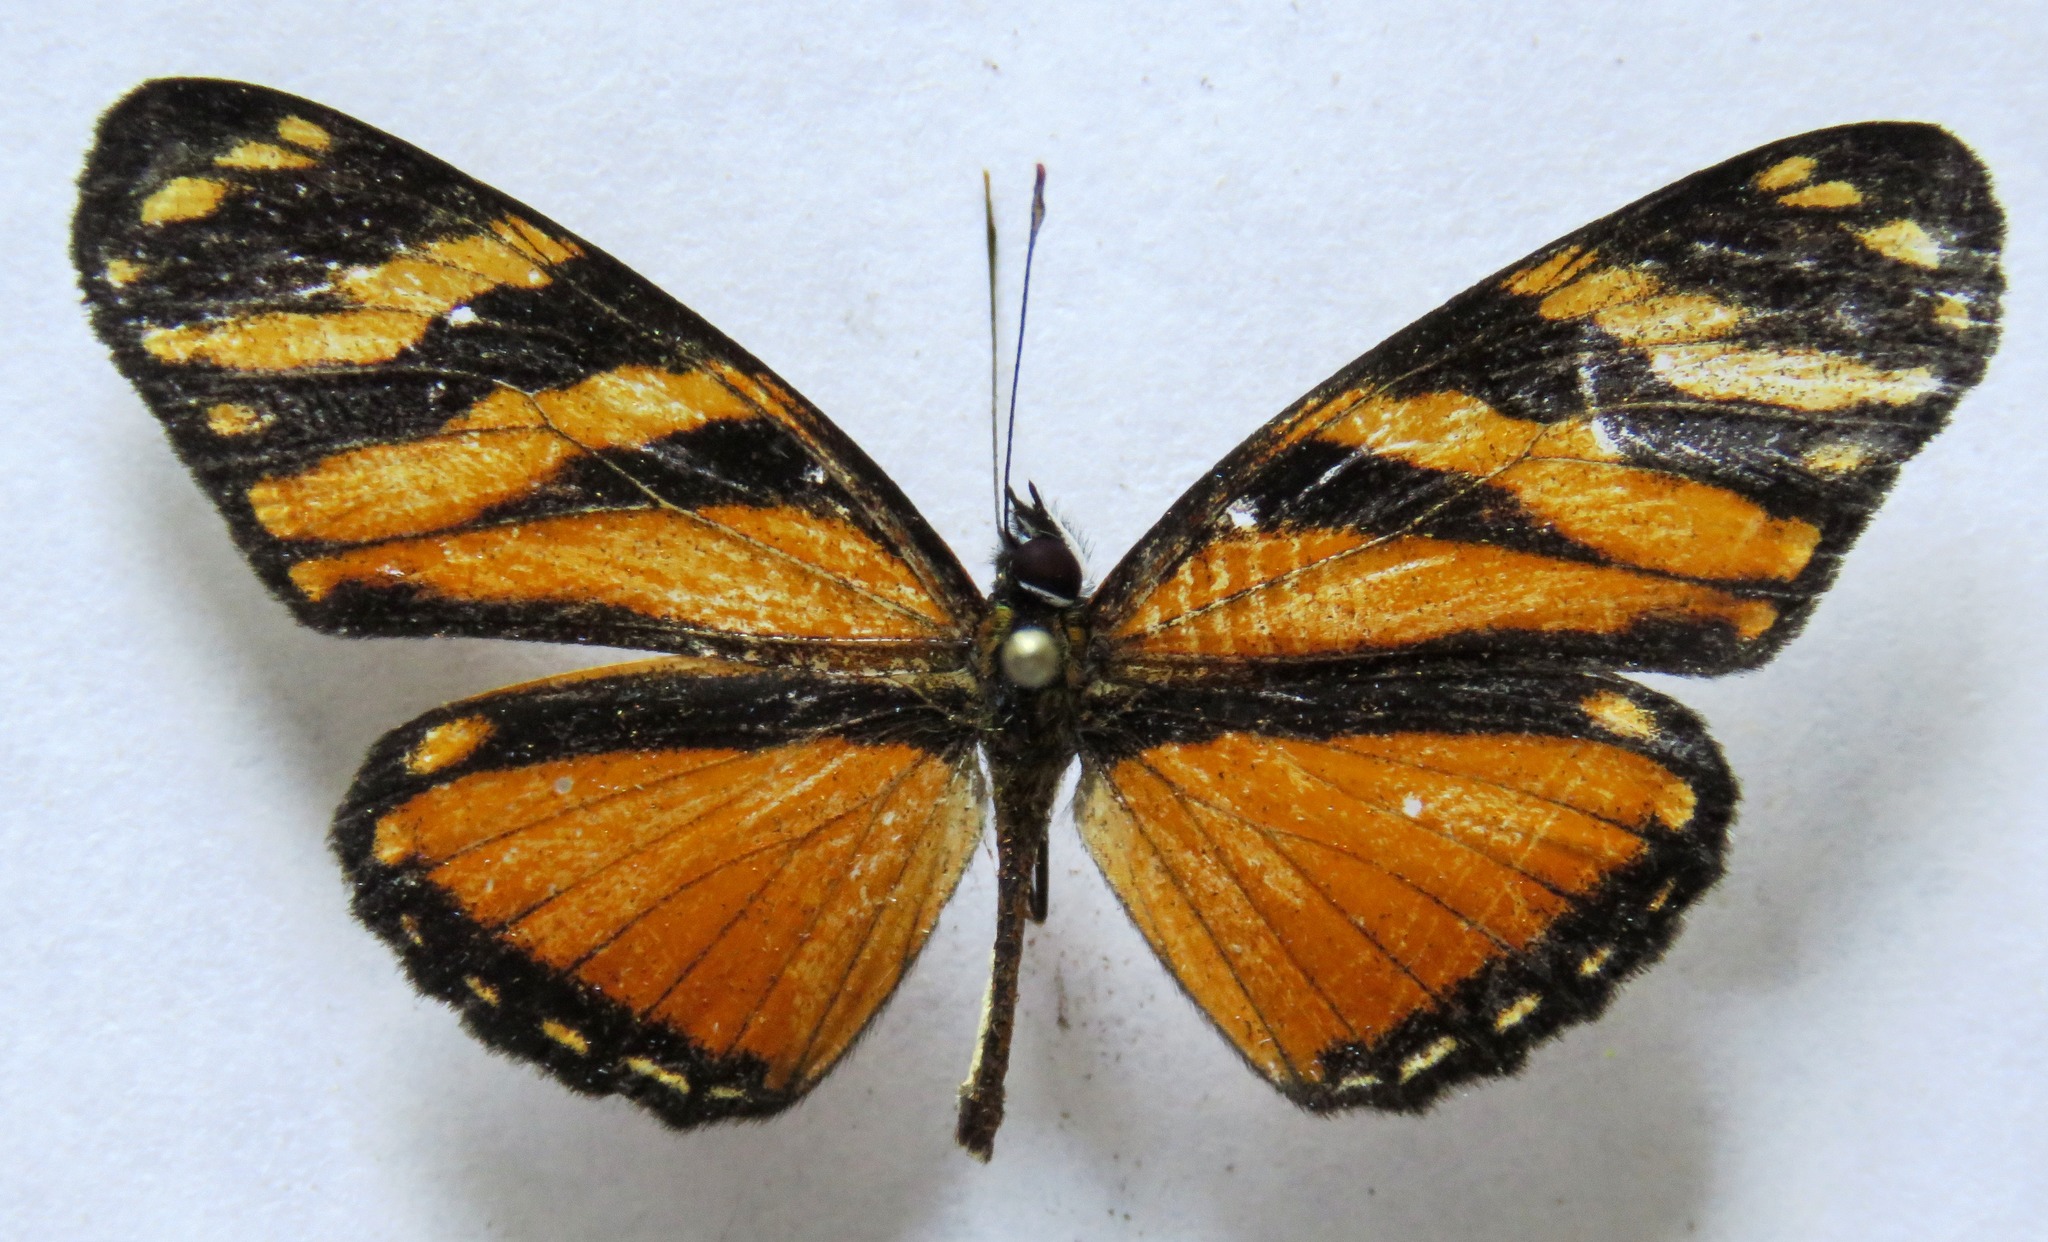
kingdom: Animalia
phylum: Arthropoda
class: Insecta
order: Lepidoptera
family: Nymphalidae
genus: Eresia
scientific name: Eresia ithomioides
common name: Variable crescent
